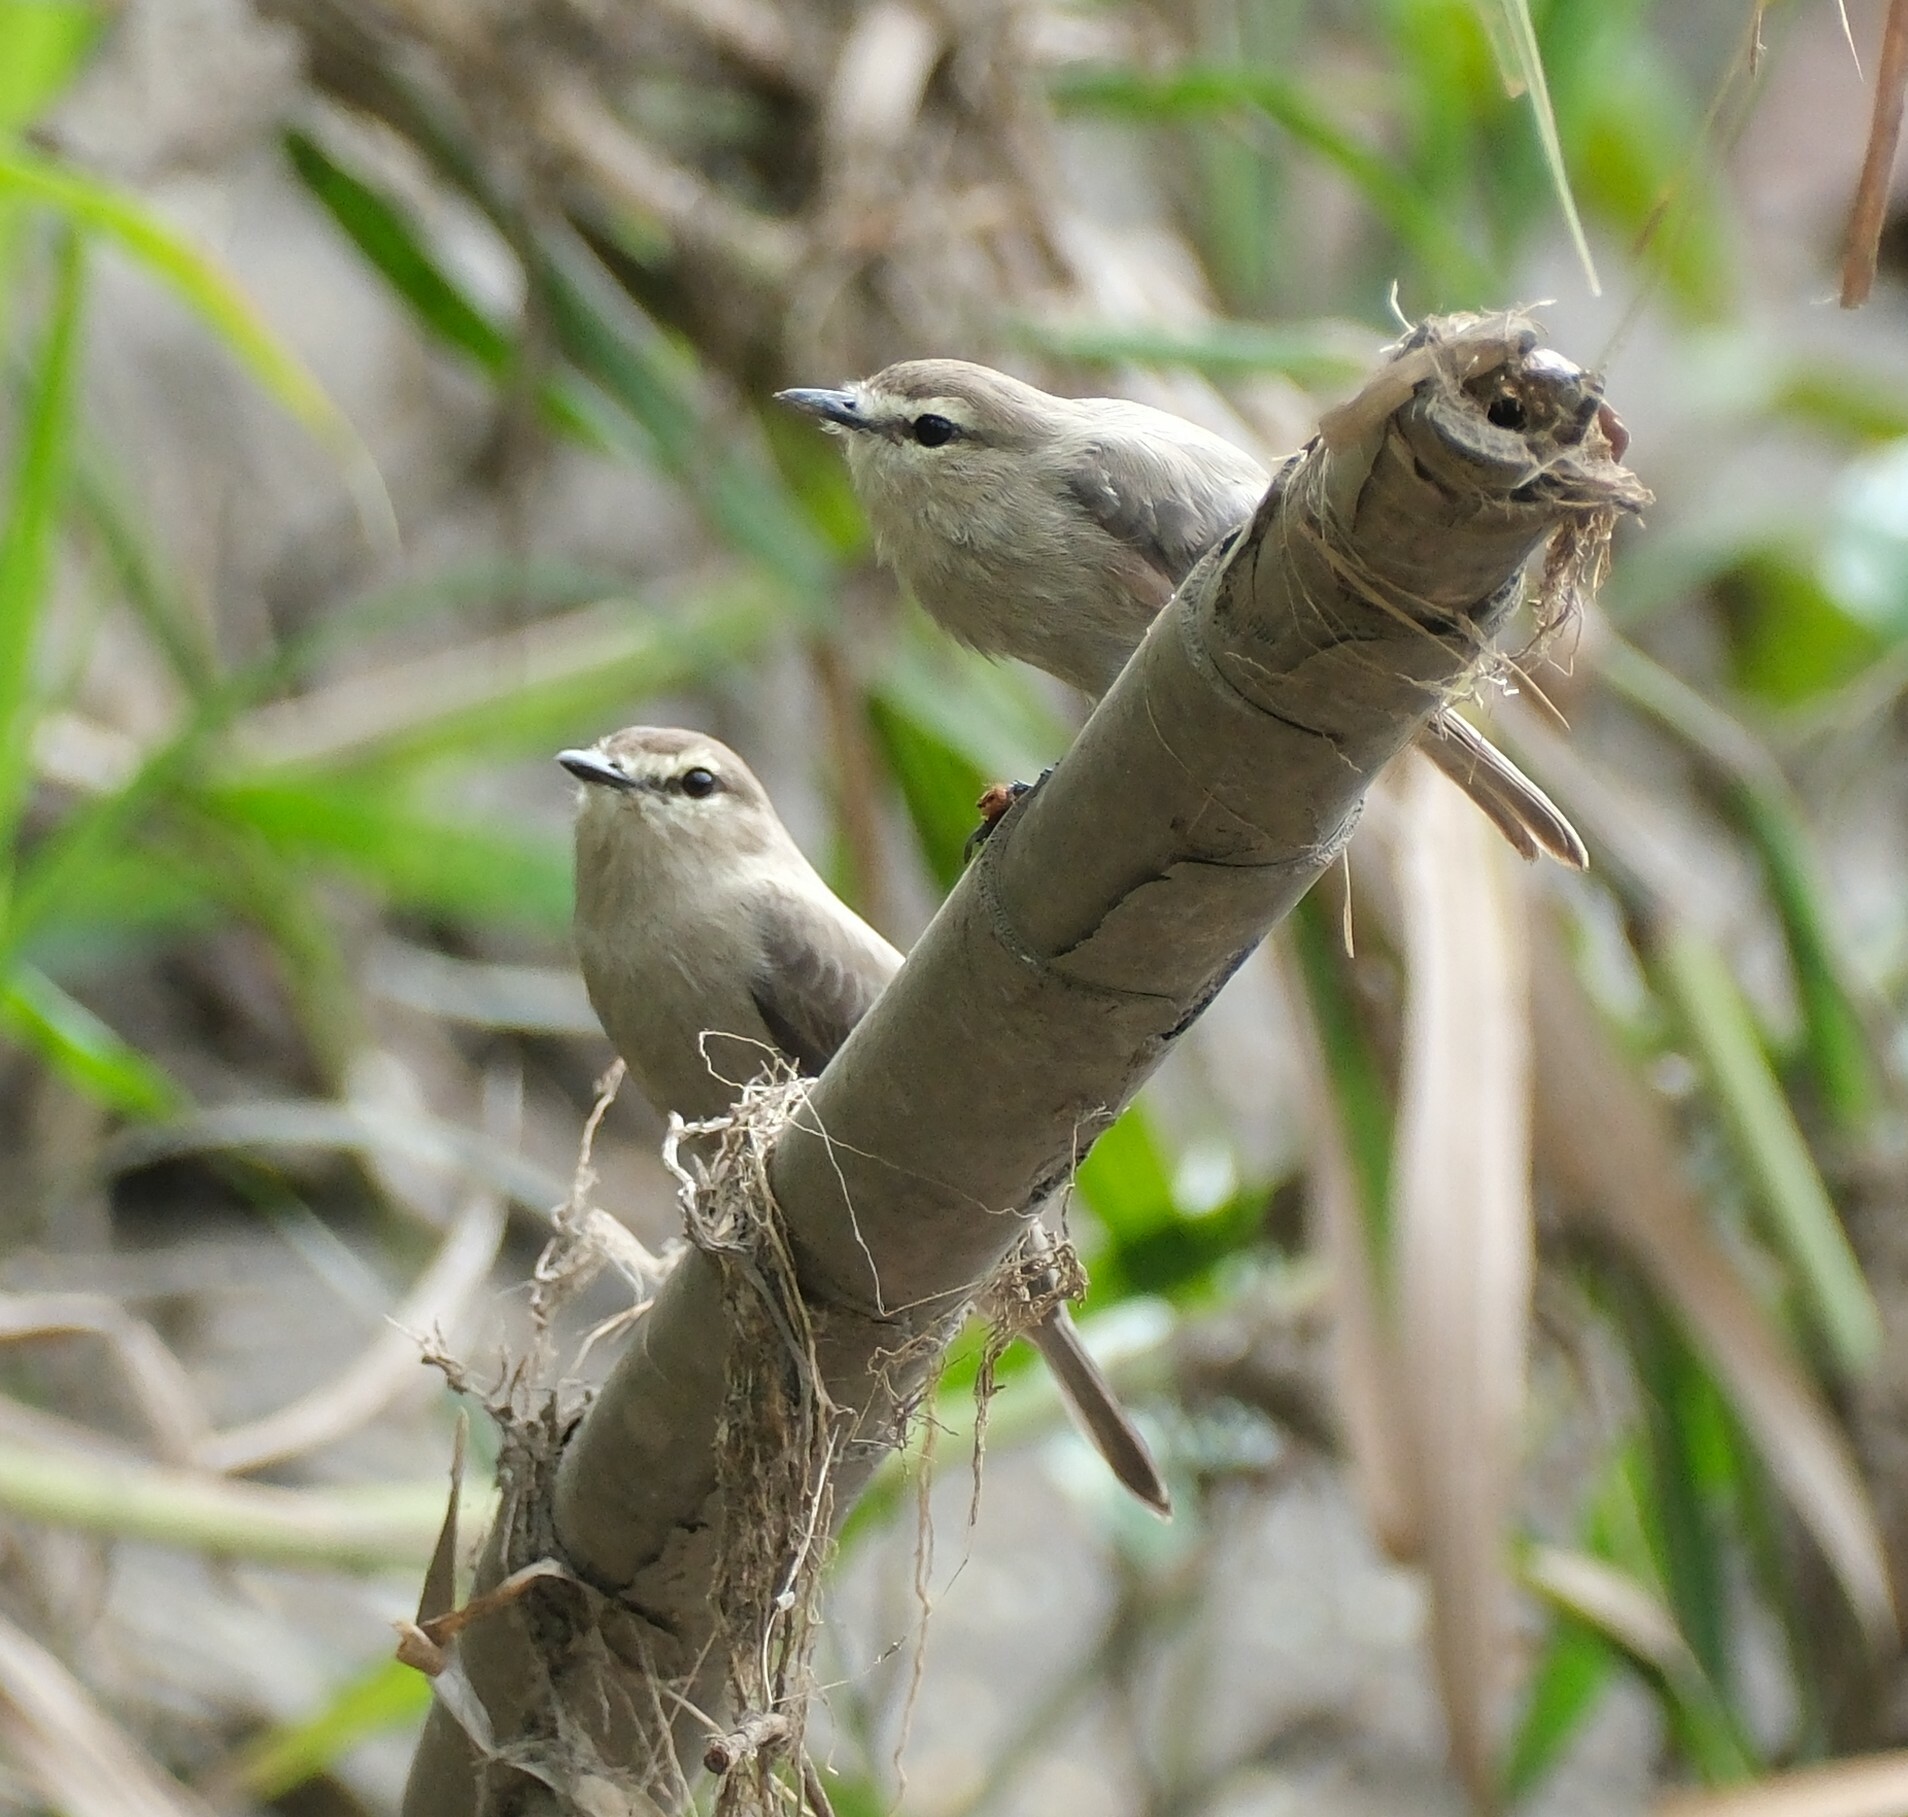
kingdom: Animalia
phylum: Chordata
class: Aves
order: Passeriformes
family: Tyrannidae
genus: Ochthornis
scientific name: Ochthornis littoralis
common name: Drab water tyrant
